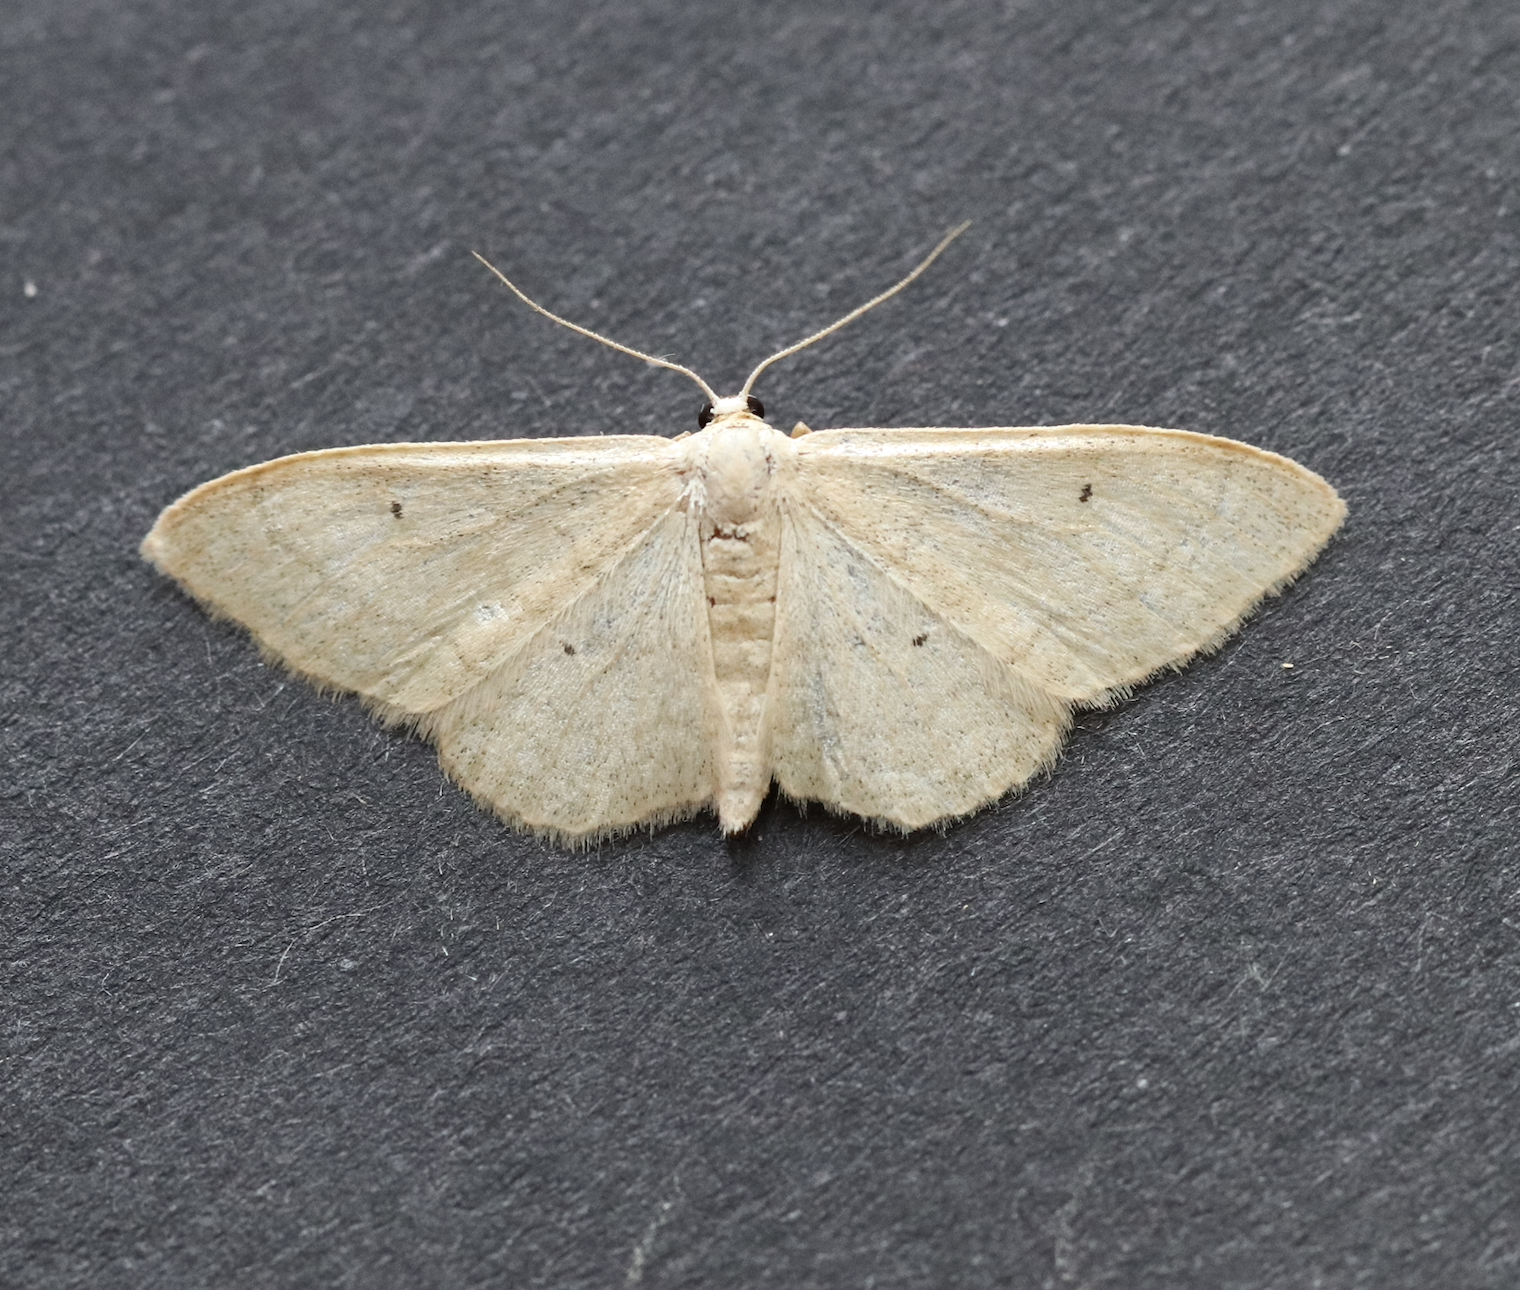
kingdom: Animalia
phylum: Arthropoda
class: Insecta
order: Lepidoptera
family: Geometridae
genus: Idaea
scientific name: Idaea straminata
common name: Plain wave
